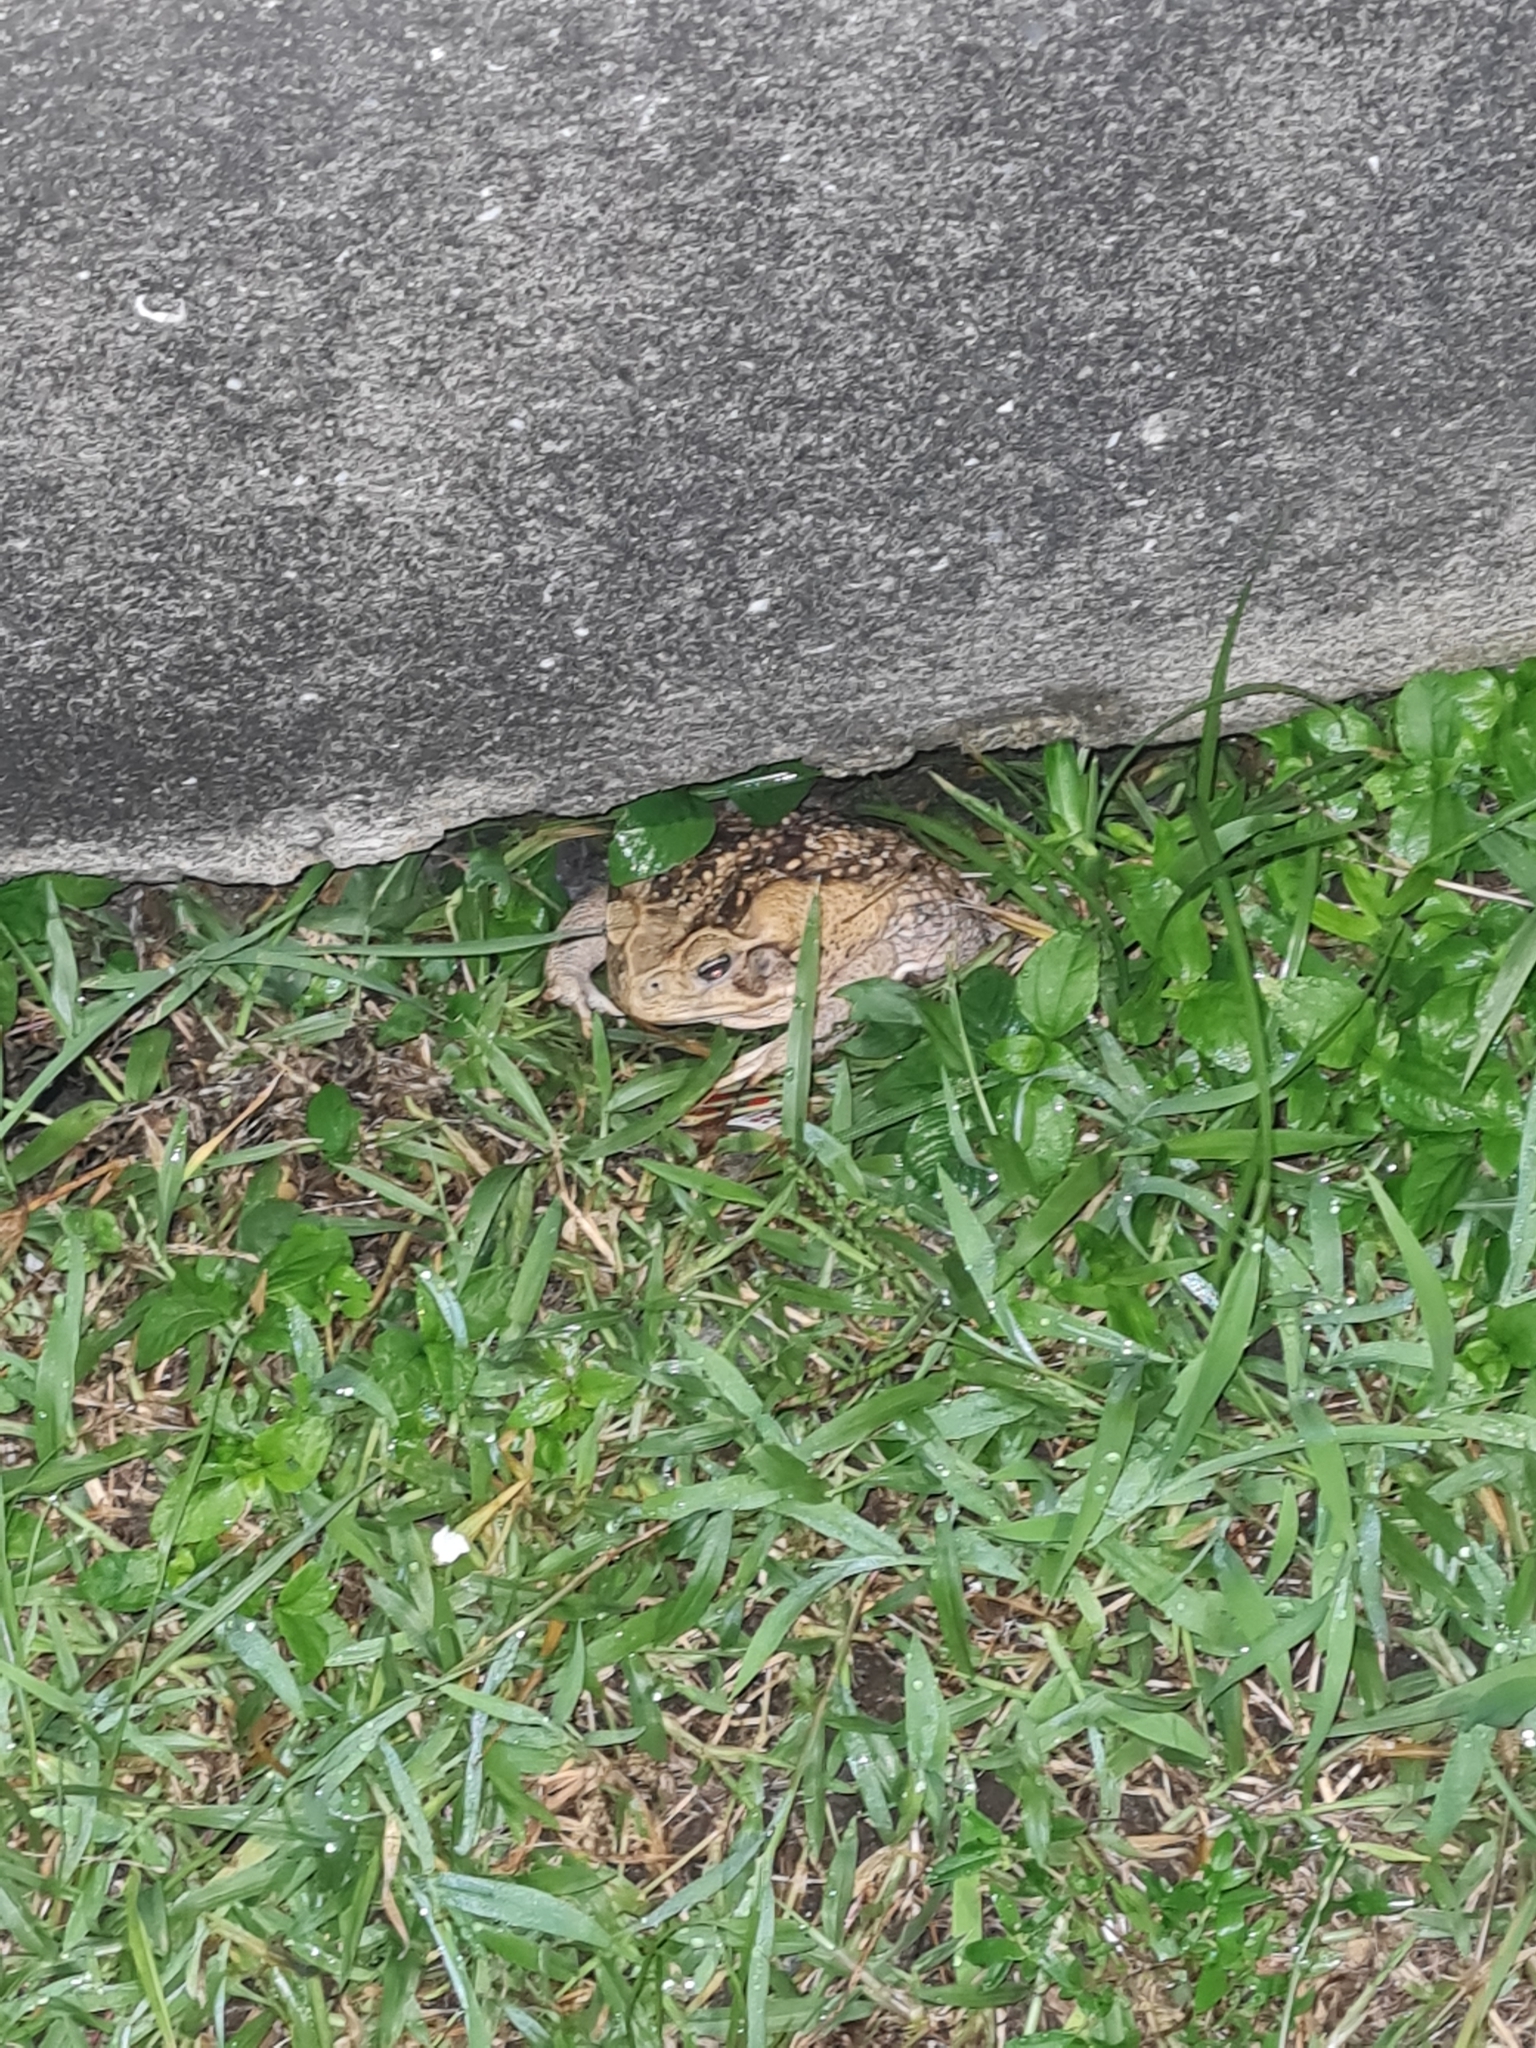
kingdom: Animalia
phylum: Chordata
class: Amphibia
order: Anura
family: Bufonidae
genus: Rhinella
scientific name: Rhinella horribilis
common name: Mesoamerican cane toad
